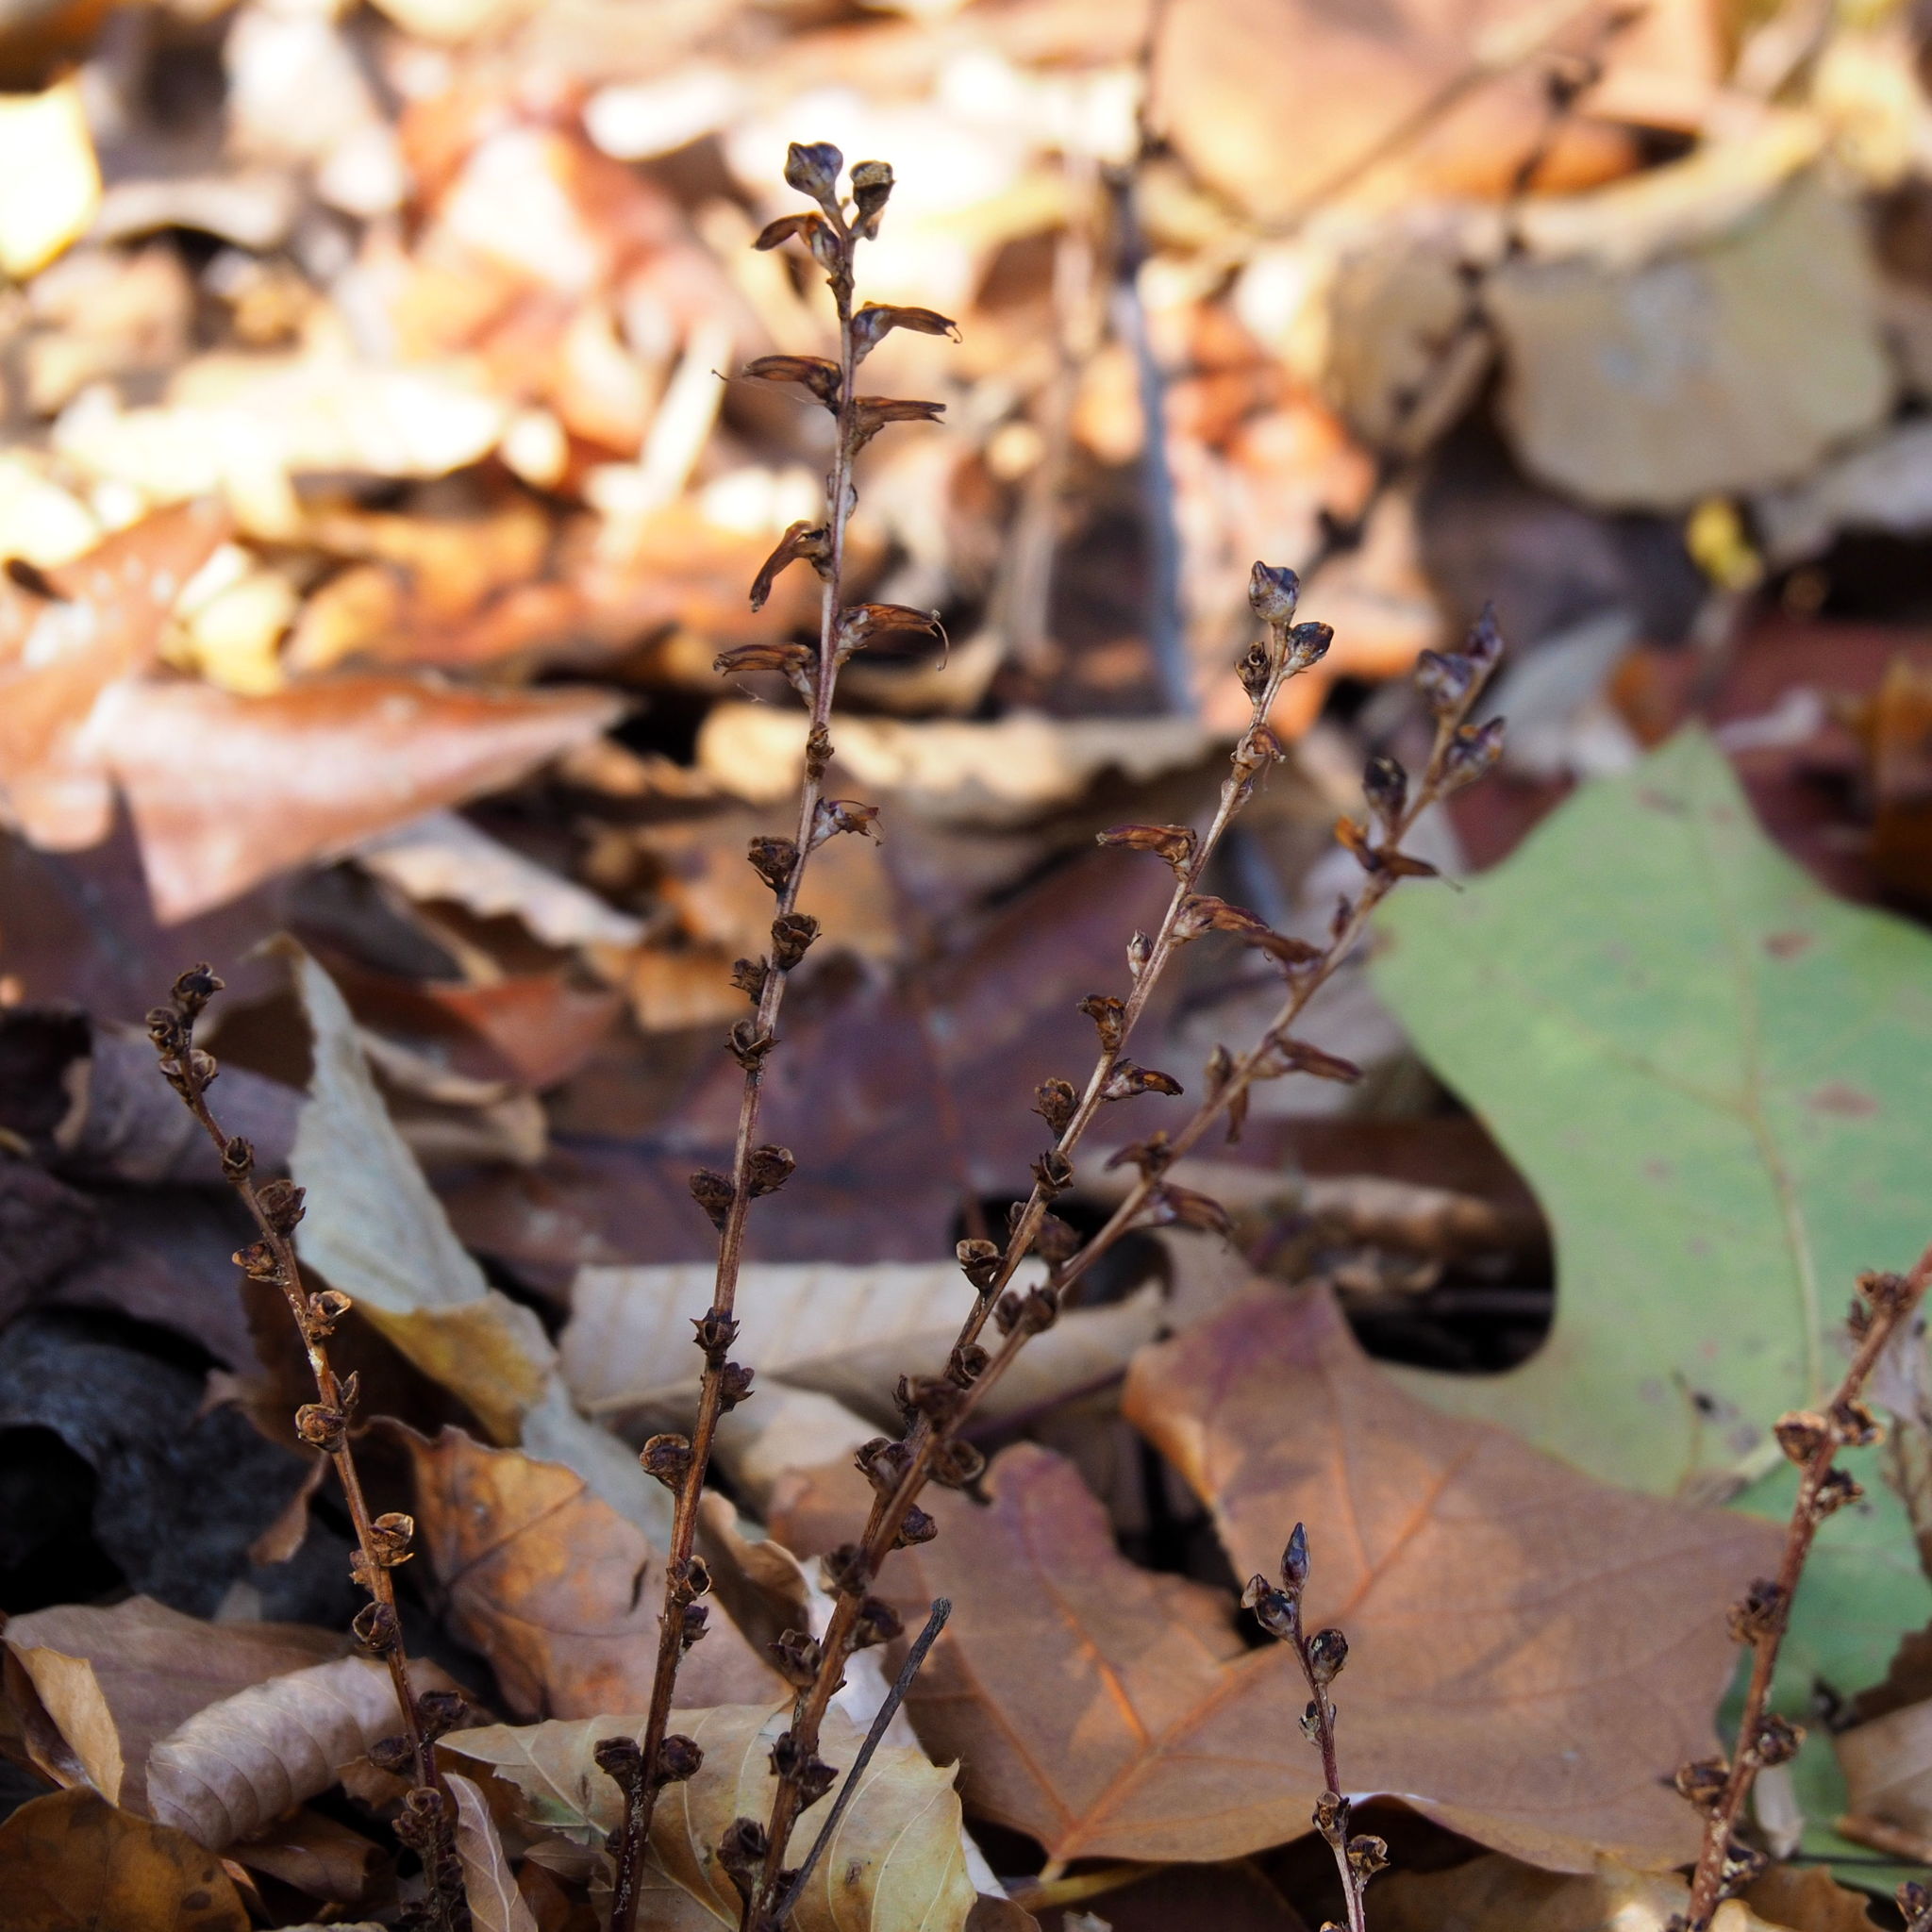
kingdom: Plantae
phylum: Tracheophyta
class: Magnoliopsida
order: Lamiales
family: Orobanchaceae
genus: Epifagus
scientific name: Epifagus virginiana
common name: Beechdrops
